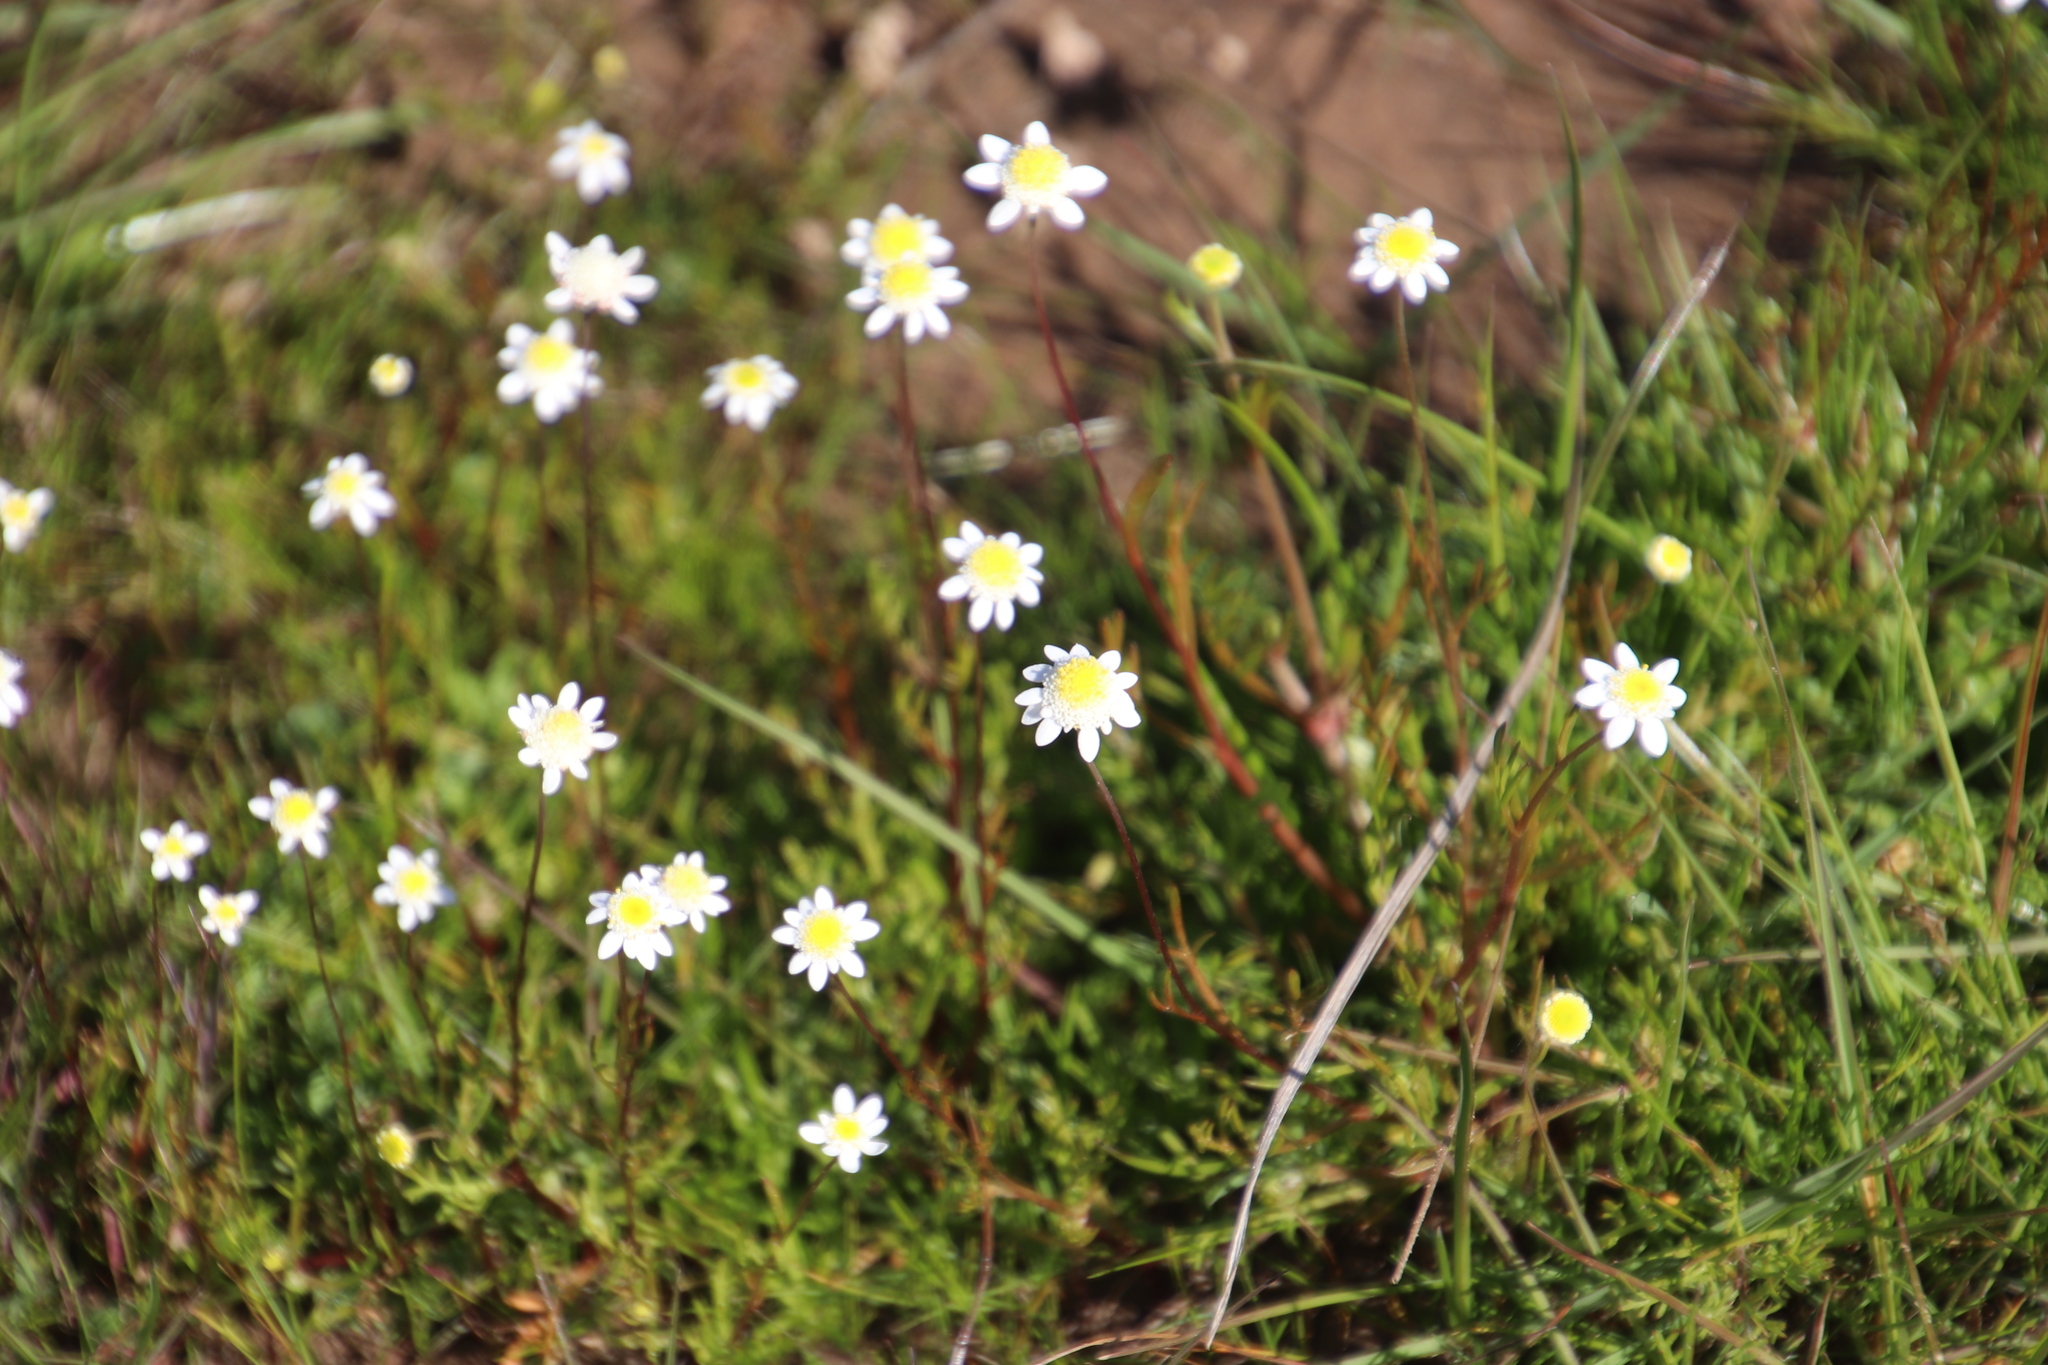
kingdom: Plantae
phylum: Tracheophyta
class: Magnoliopsida
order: Asterales
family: Asteraceae
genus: Cotula
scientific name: Cotula turbinata
